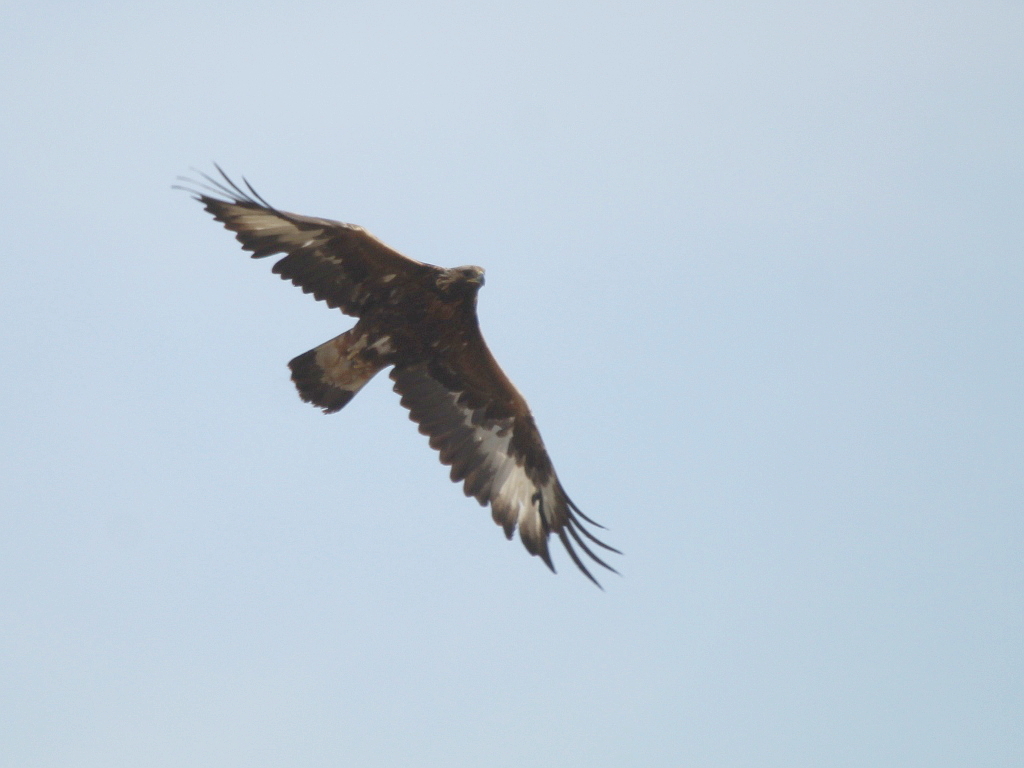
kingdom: Animalia
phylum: Chordata
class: Aves
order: Accipitriformes
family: Accipitridae
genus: Aquila
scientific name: Aquila chrysaetos
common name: Golden eagle
